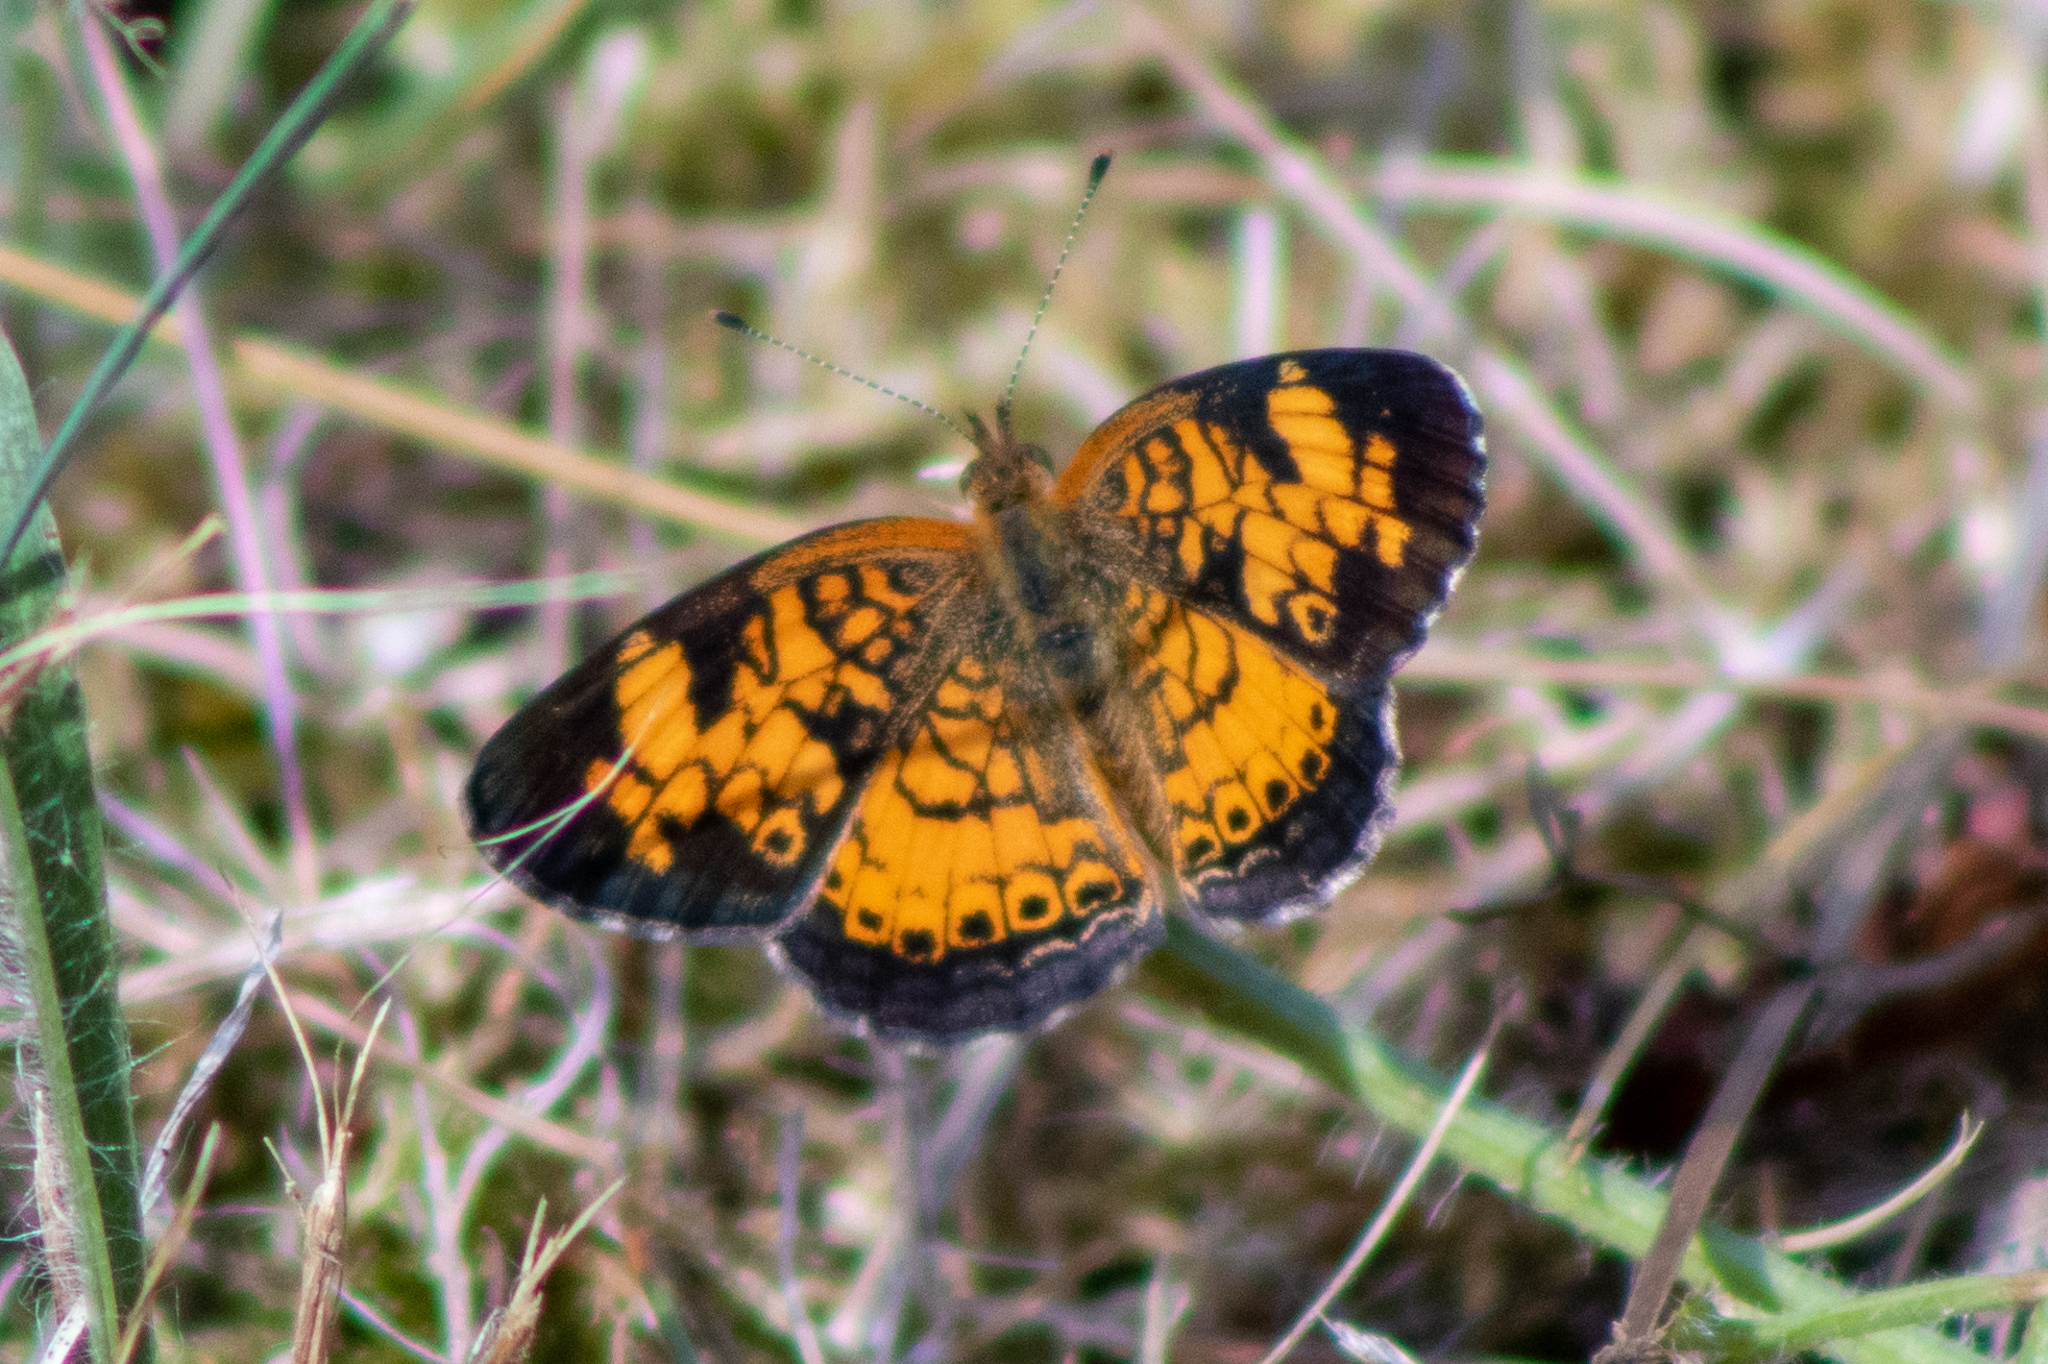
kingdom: Animalia
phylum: Arthropoda
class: Insecta
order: Lepidoptera
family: Nymphalidae
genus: Phyciodes
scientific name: Phyciodes tharos
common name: Pearl crescent
